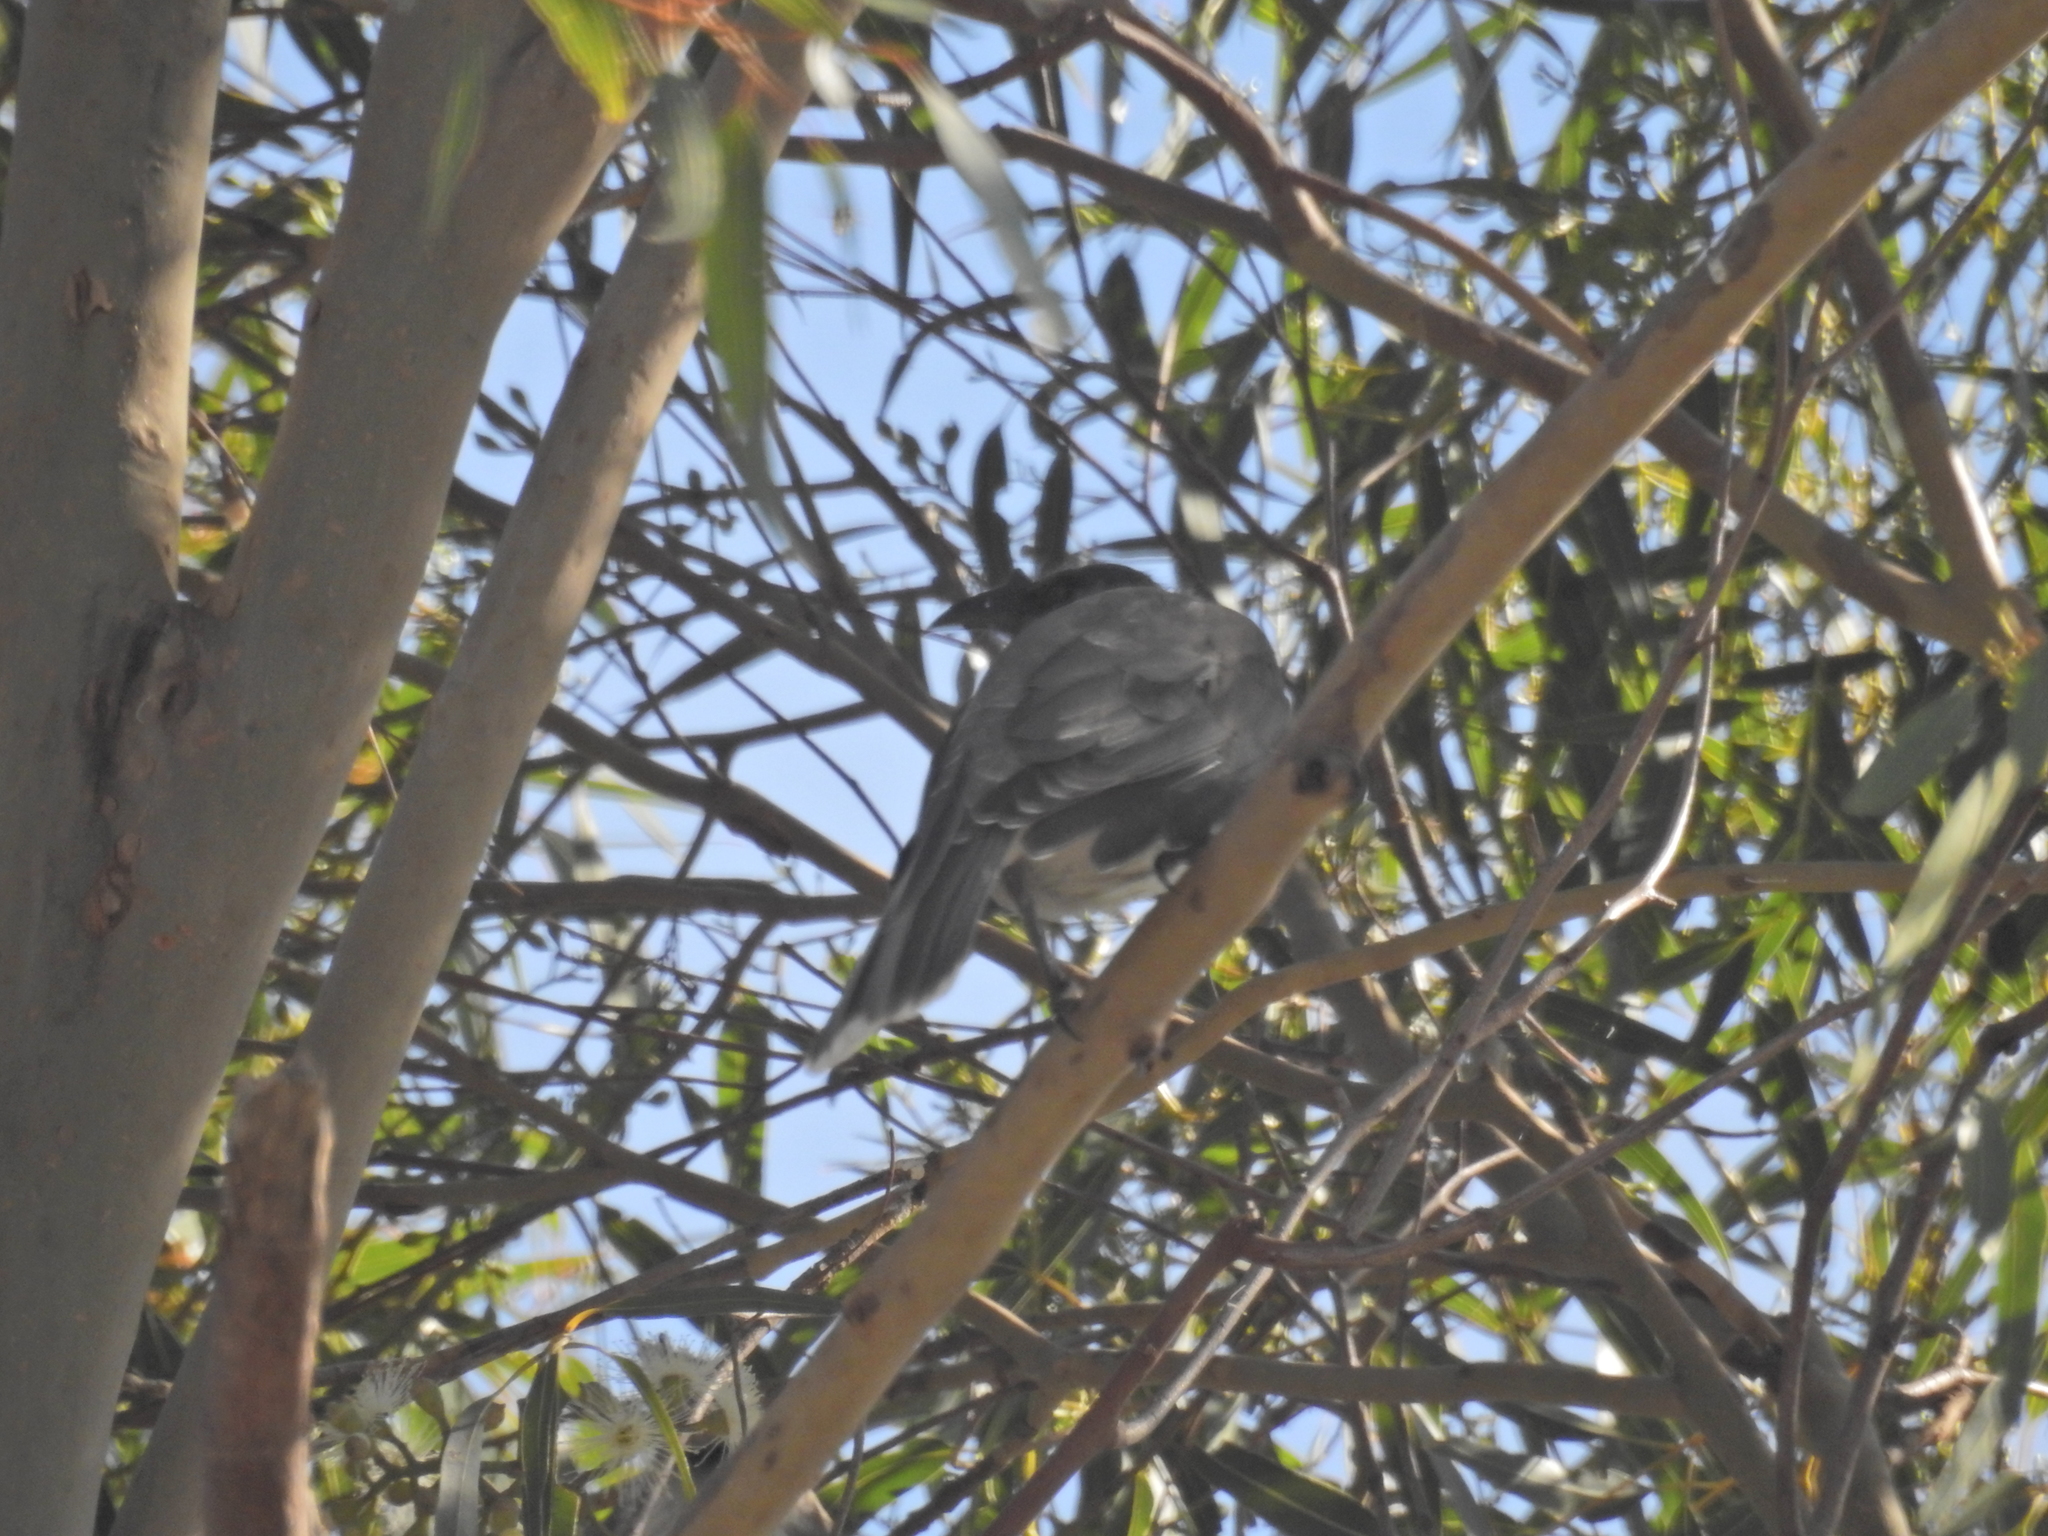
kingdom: Animalia
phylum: Chordata
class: Aves
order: Passeriformes
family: Meliphagidae
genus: Philemon
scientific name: Philemon corniculatus
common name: Noisy friarbird
